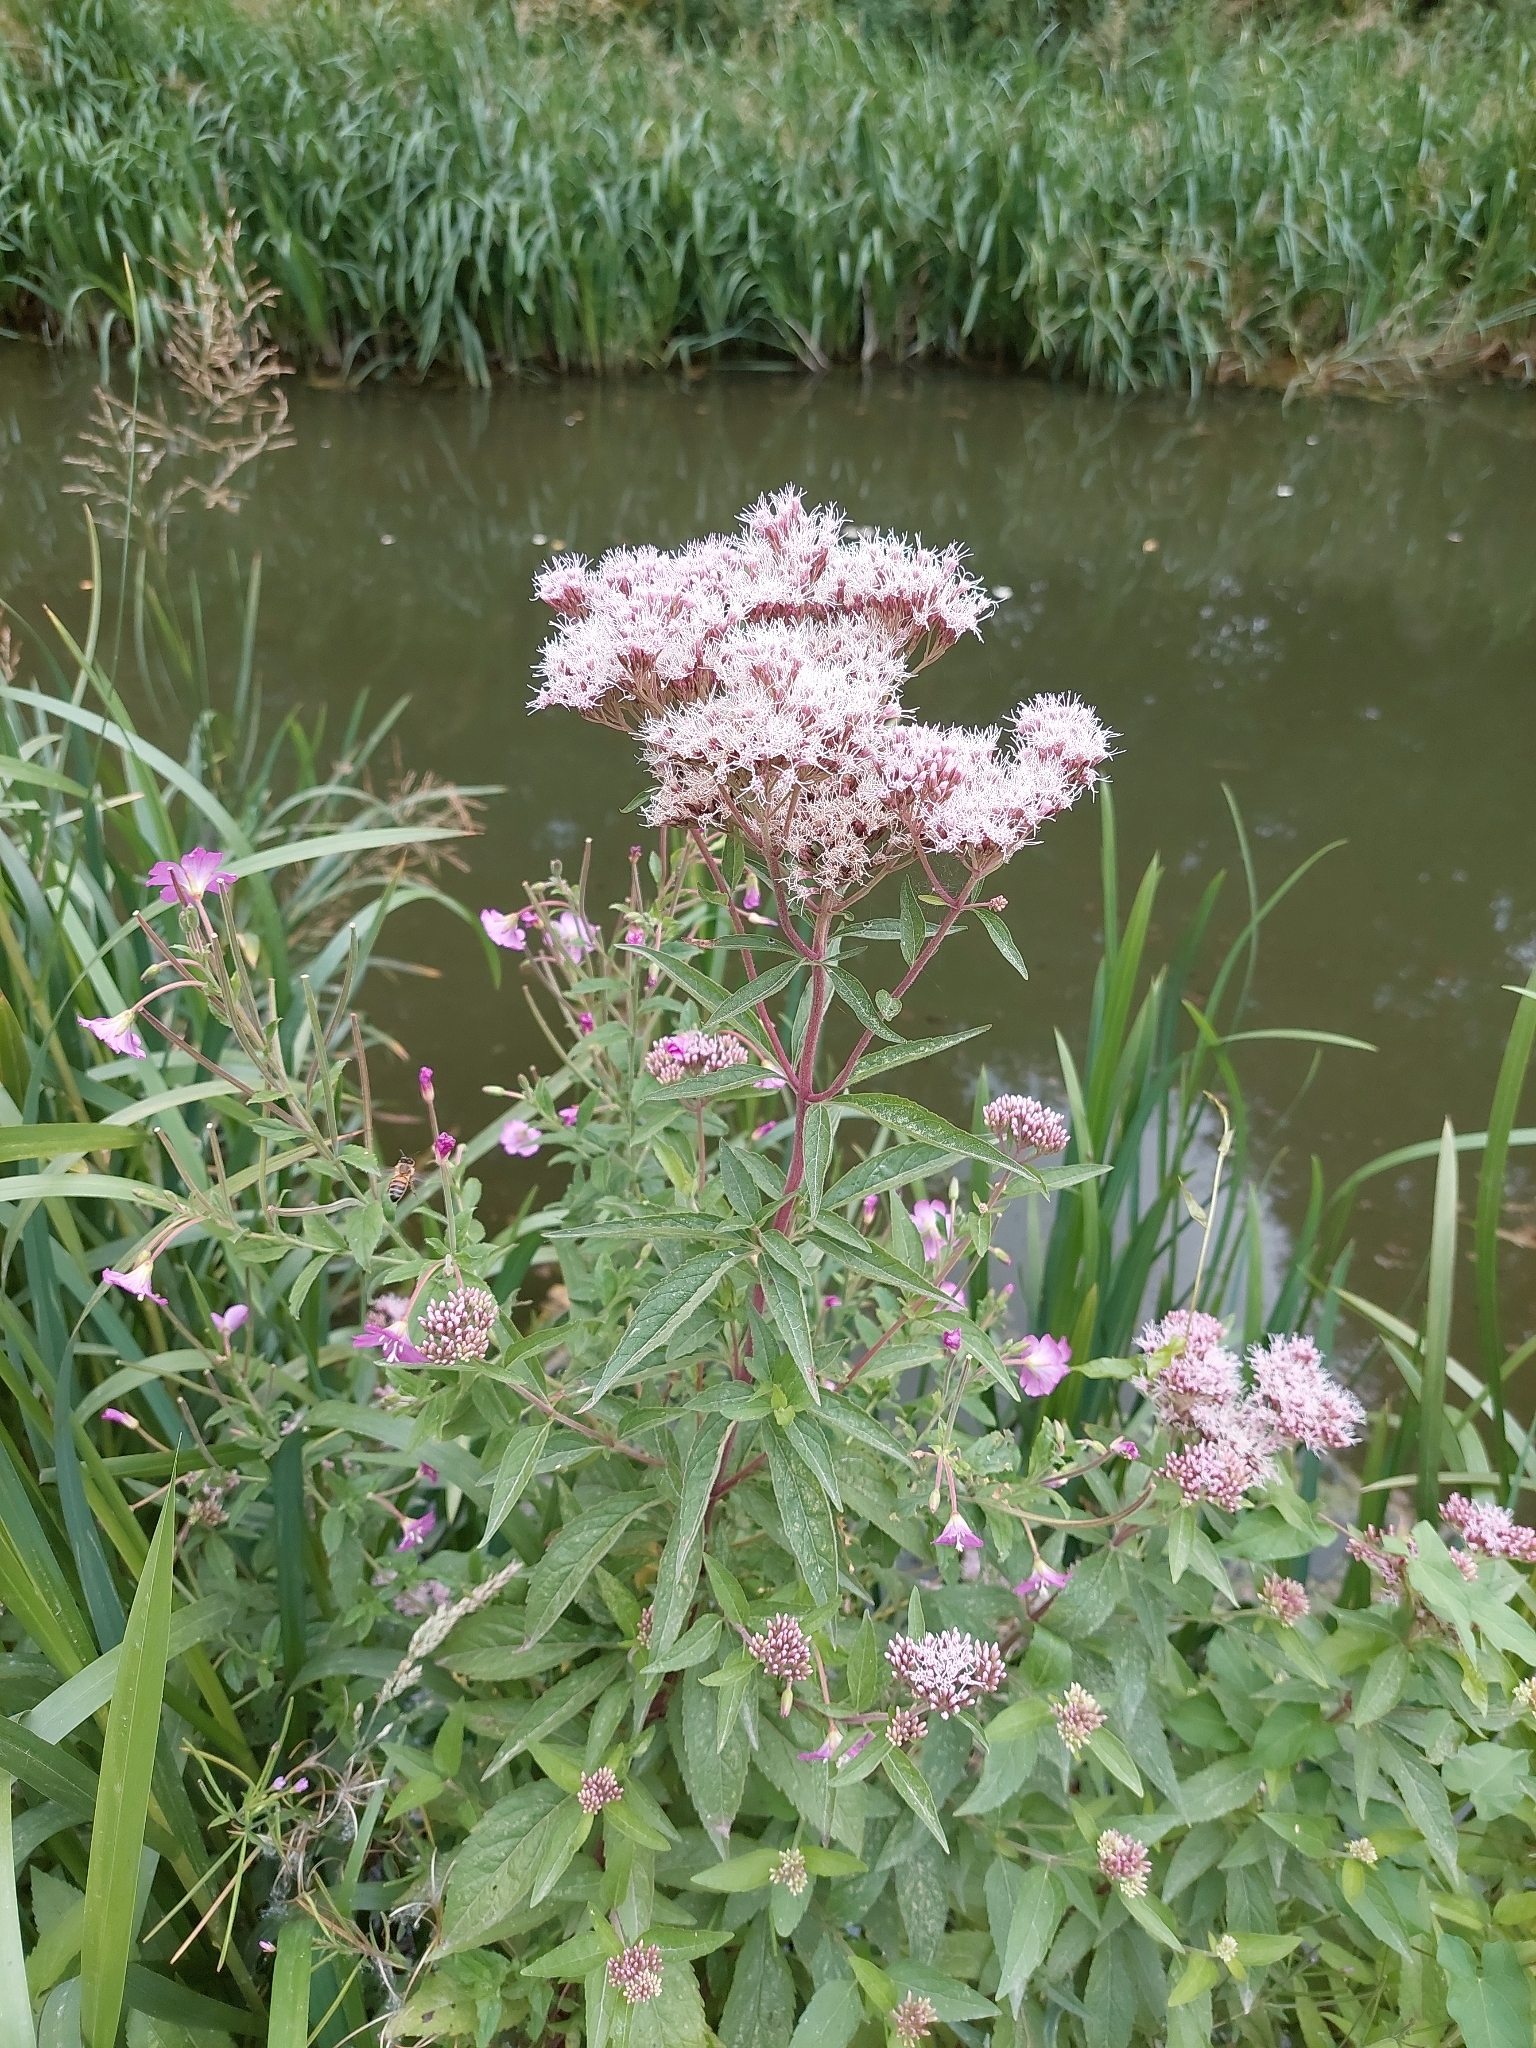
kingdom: Plantae
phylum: Tracheophyta
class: Magnoliopsida
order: Asterales
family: Asteraceae
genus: Eupatorium
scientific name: Eupatorium cannabinum
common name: Hemp-agrimony
